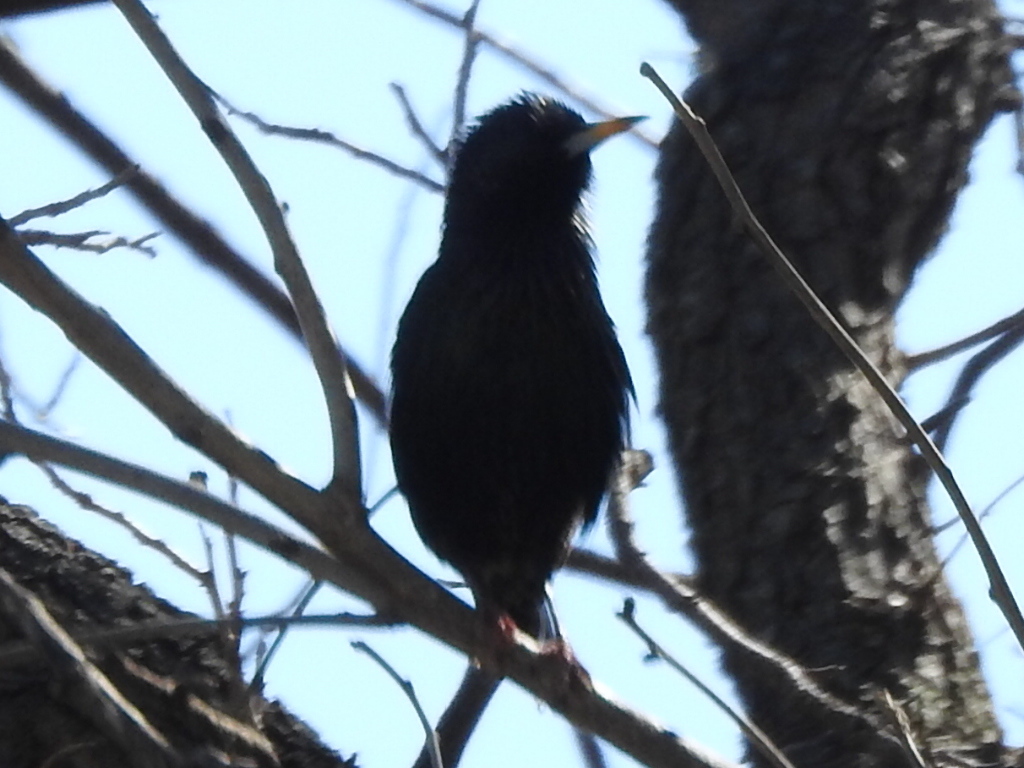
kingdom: Animalia
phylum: Chordata
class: Aves
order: Passeriformes
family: Sturnidae
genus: Sturnus
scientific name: Sturnus vulgaris
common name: Common starling
